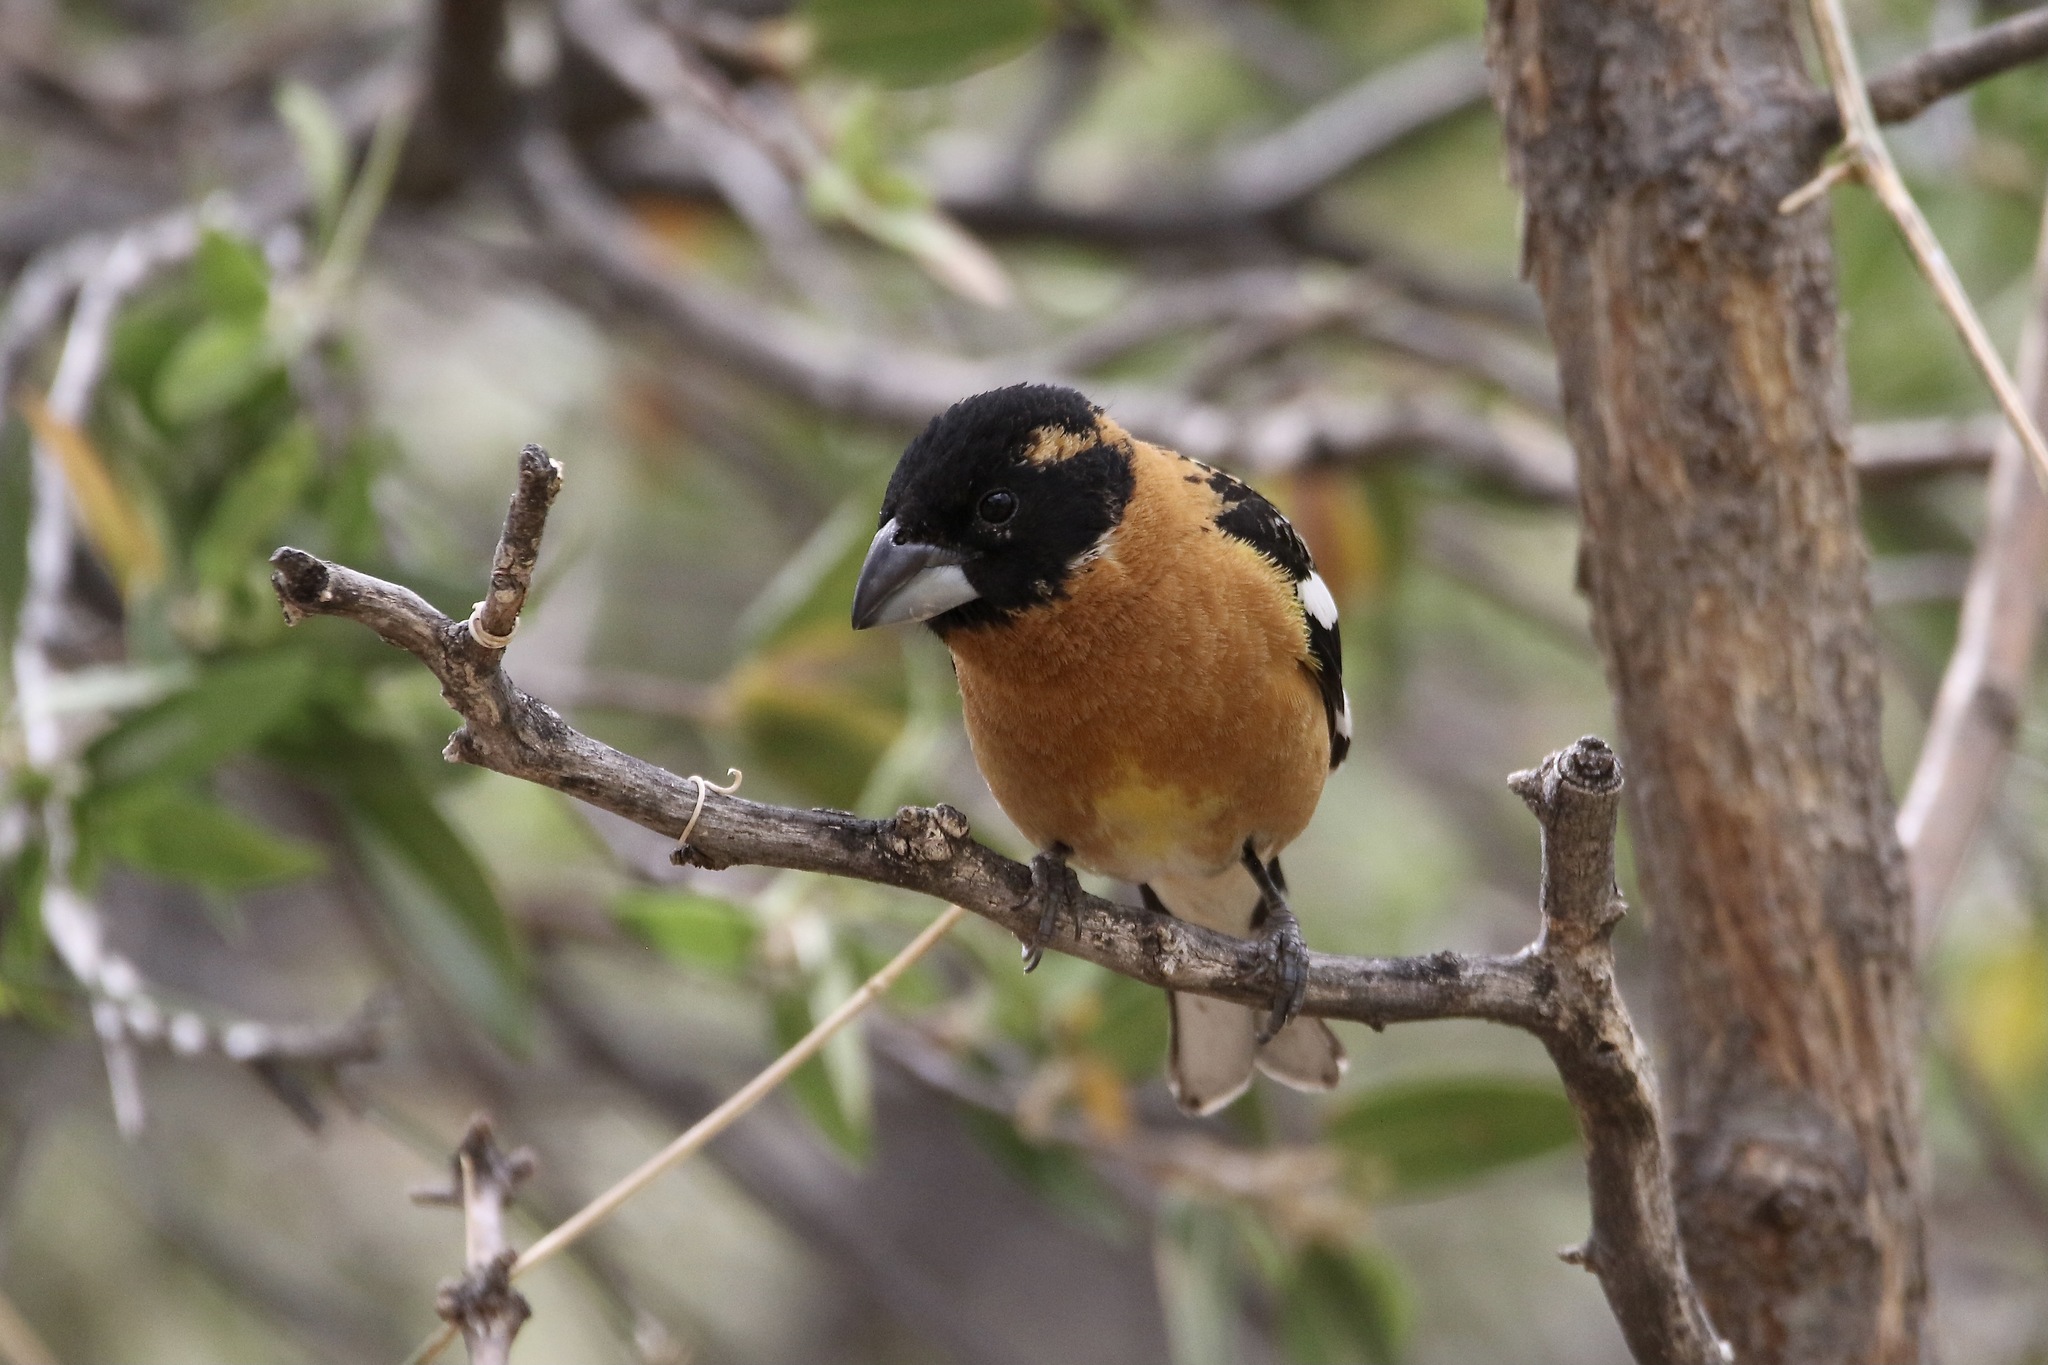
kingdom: Animalia
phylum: Chordata
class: Aves
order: Passeriformes
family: Cardinalidae
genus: Pheucticus
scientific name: Pheucticus melanocephalus
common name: Black-headed grosbeak
